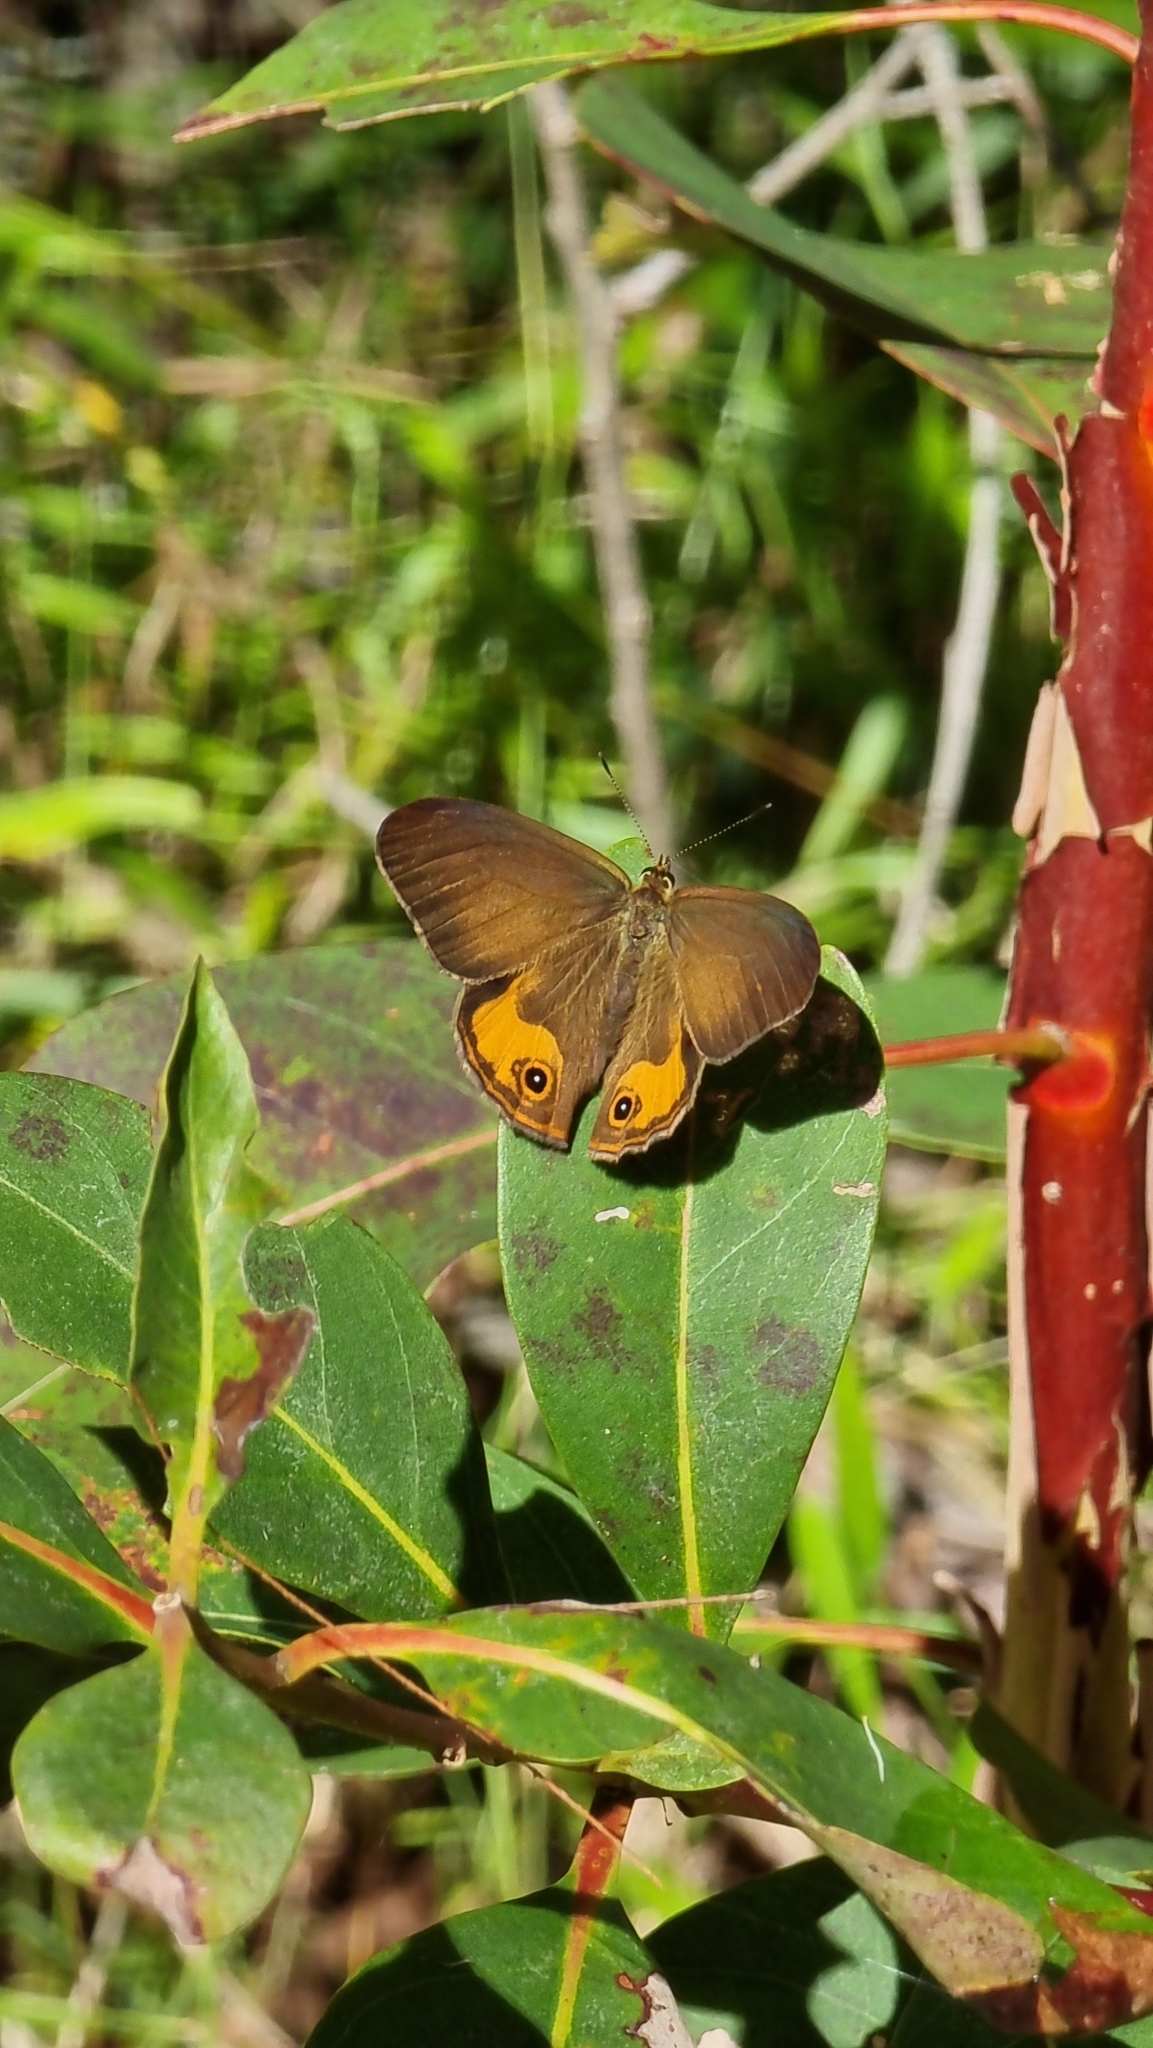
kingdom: Animalia
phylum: Arthropoda
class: Insecta
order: Lepidoptera
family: Nymphalidae
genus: Hypocysta
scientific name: Hypocysta metirius
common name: Brown ringlet
